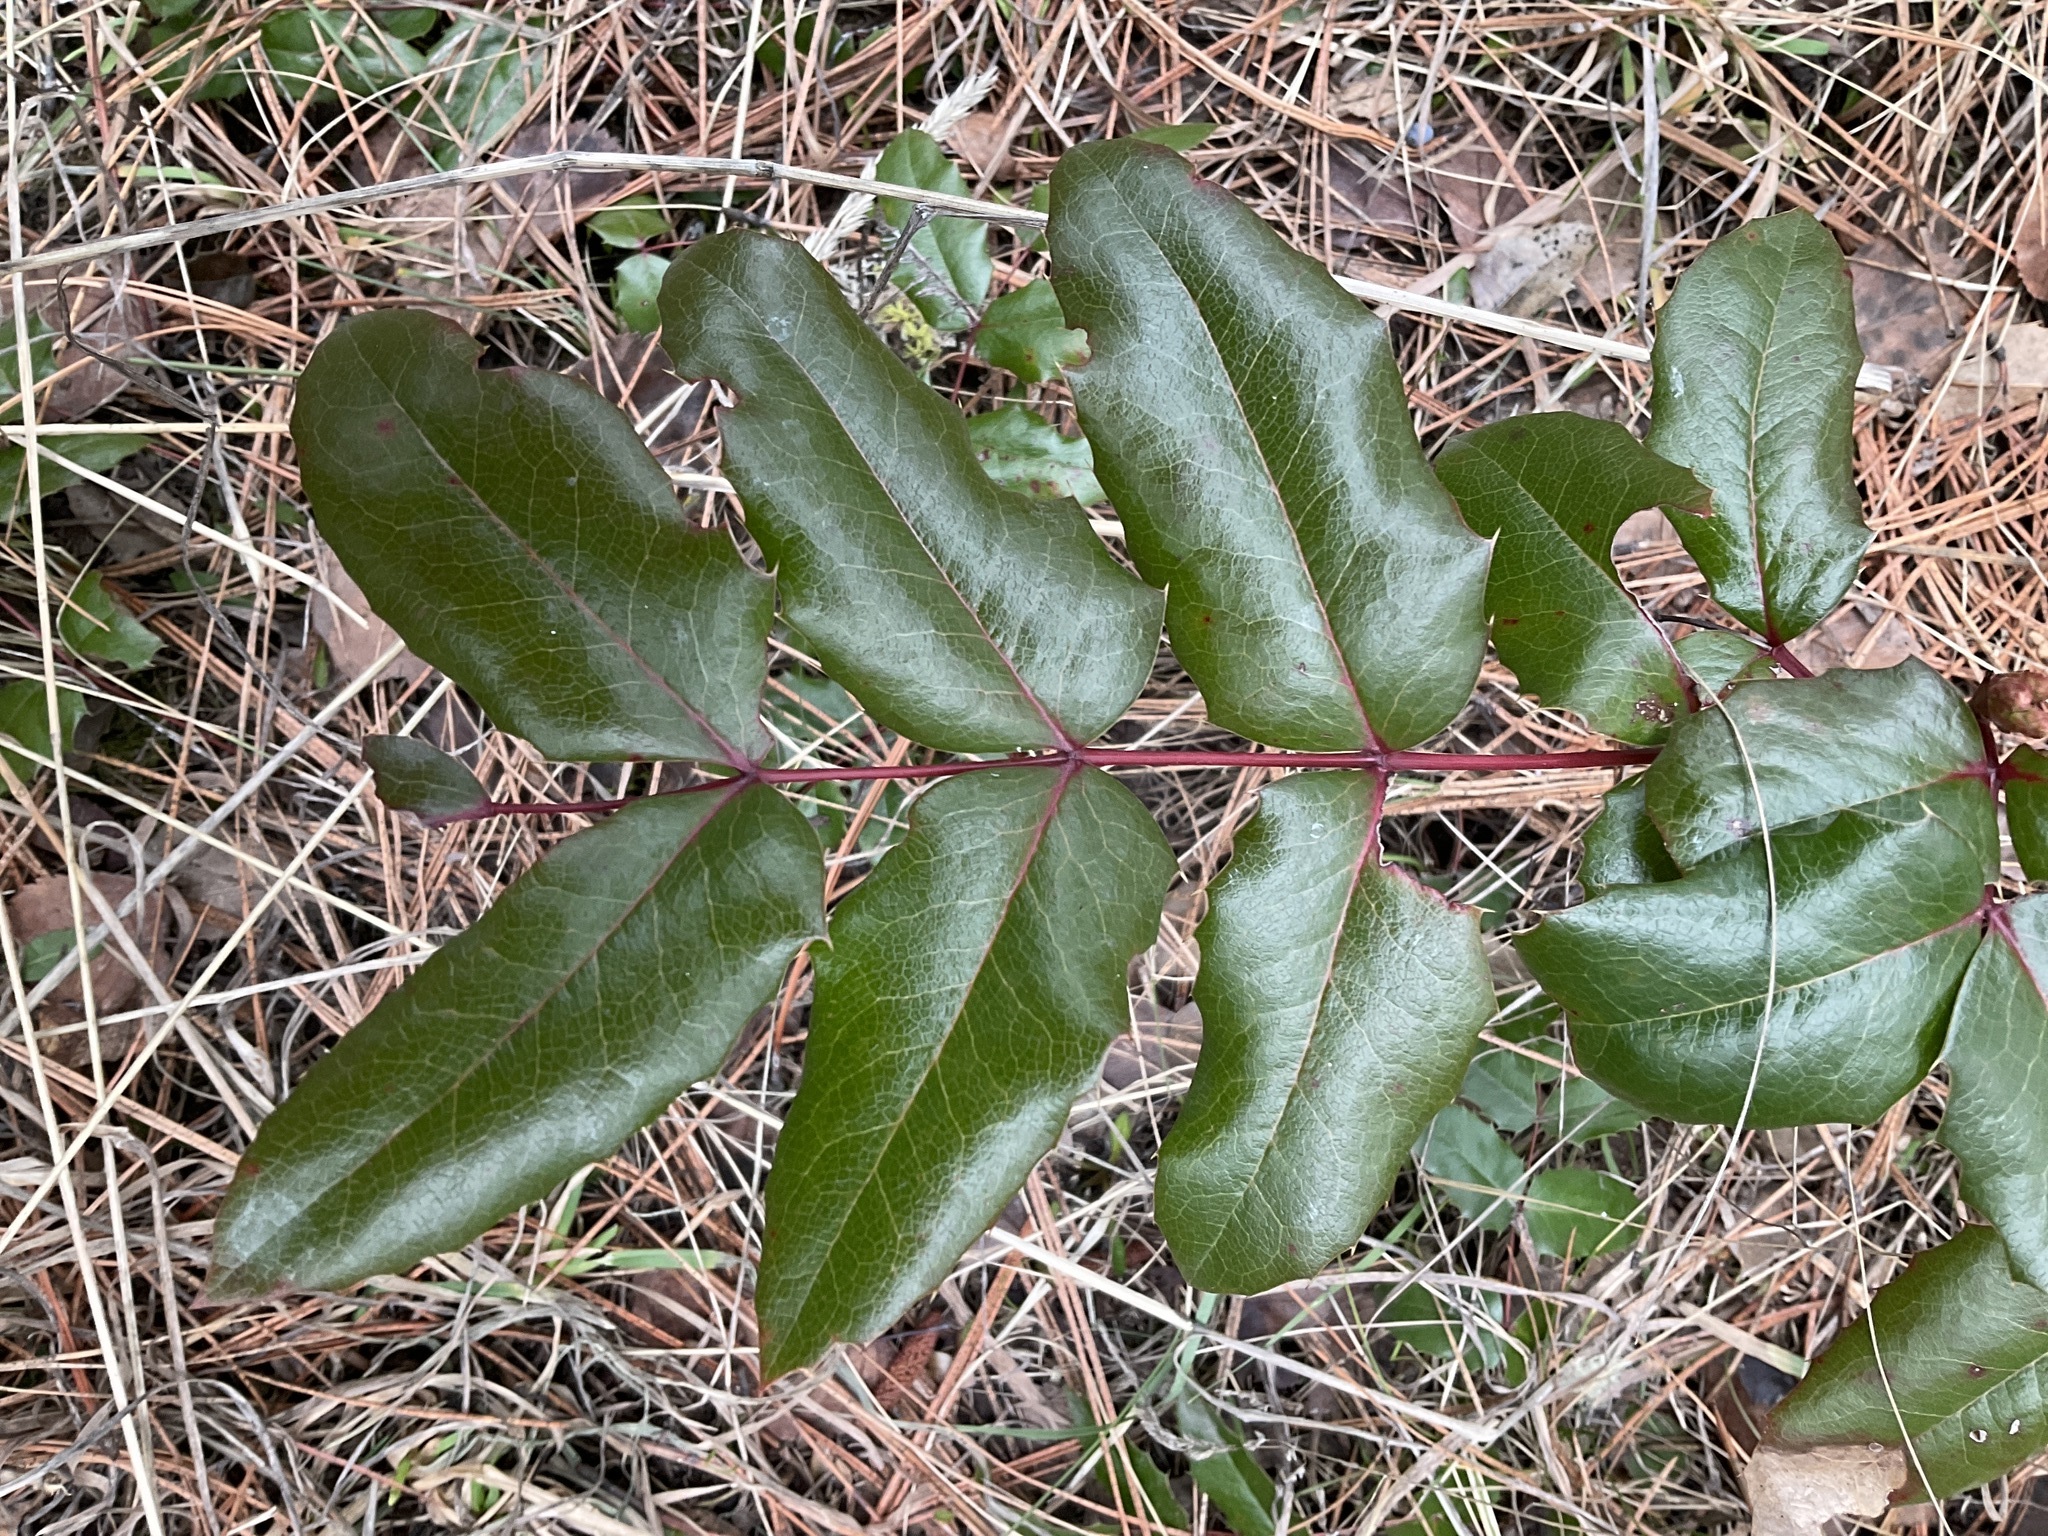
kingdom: Plantae
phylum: Tracheophyta
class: Magnoliopsida
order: Ranunculales
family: Berberidaceae
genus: Mahonia
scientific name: Mahonia aquifolium
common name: Oregon-grape
